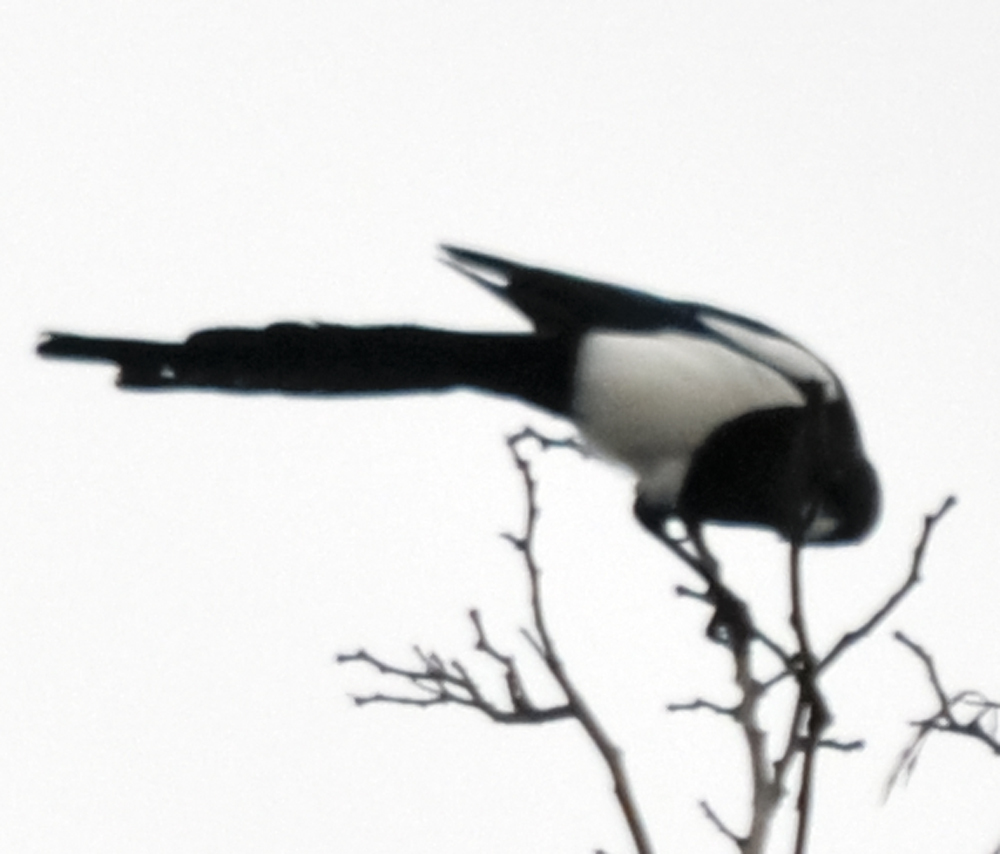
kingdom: Animalia
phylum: Chordata
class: Aves
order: Passeriformes
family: Corvidae
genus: Pica
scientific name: Pica pica
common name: Eurasian magpie
